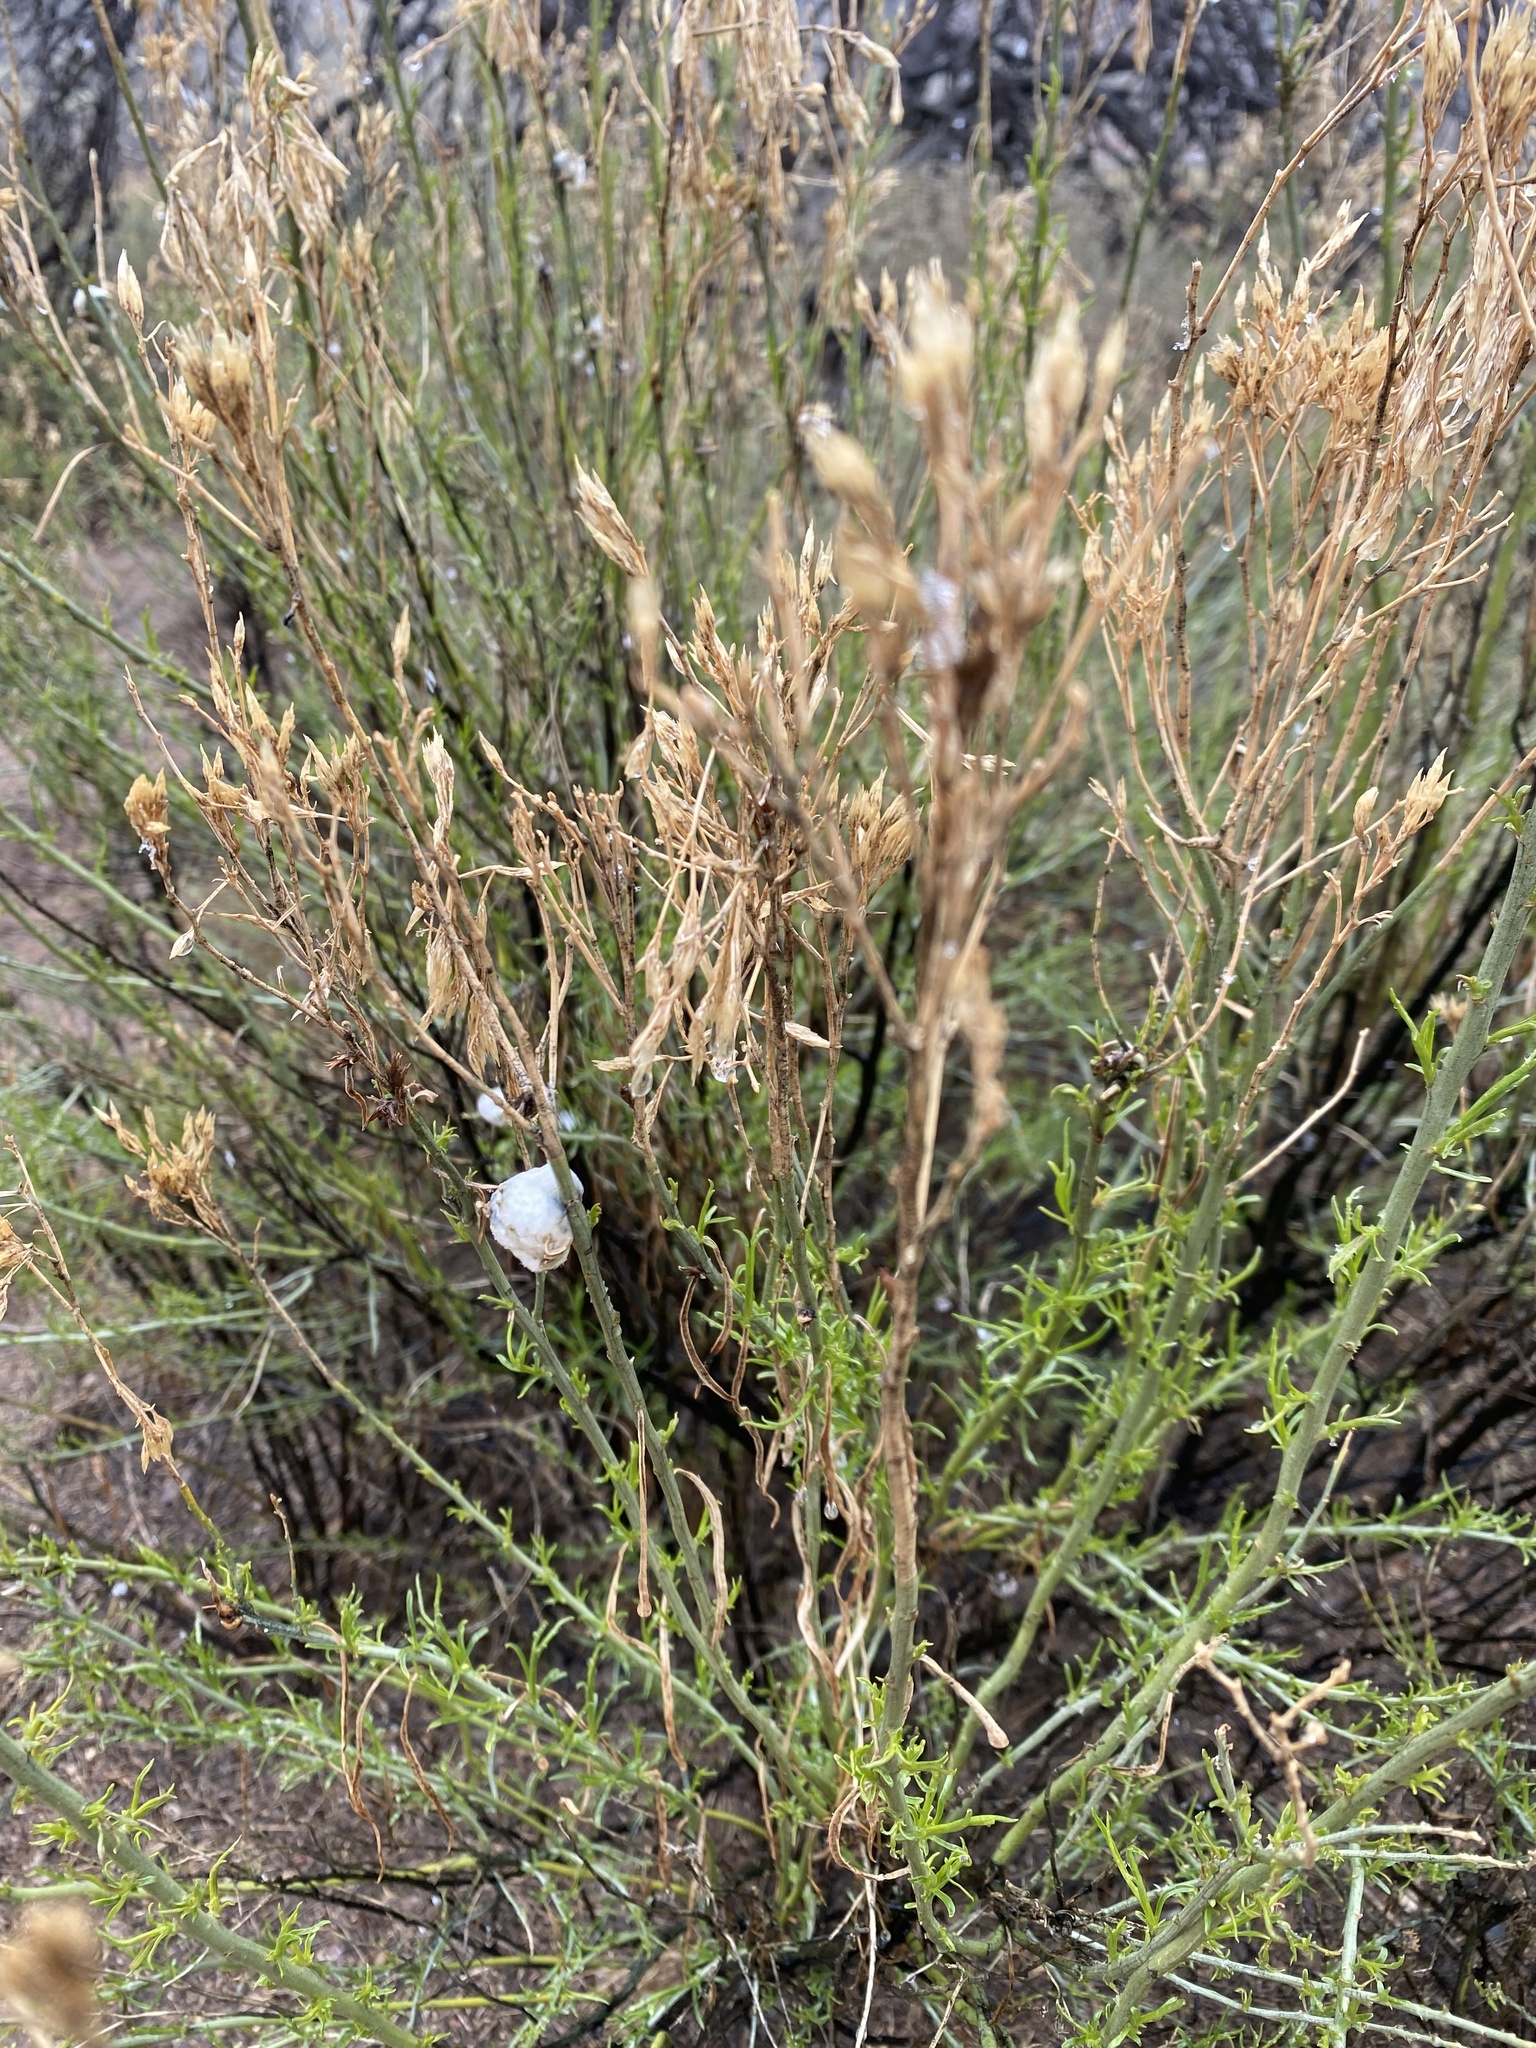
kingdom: Animalia
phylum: Arthropoda
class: Insecta
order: Diptera
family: Tephritidae
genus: Aciurina
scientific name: Aciurina bigeloviae
